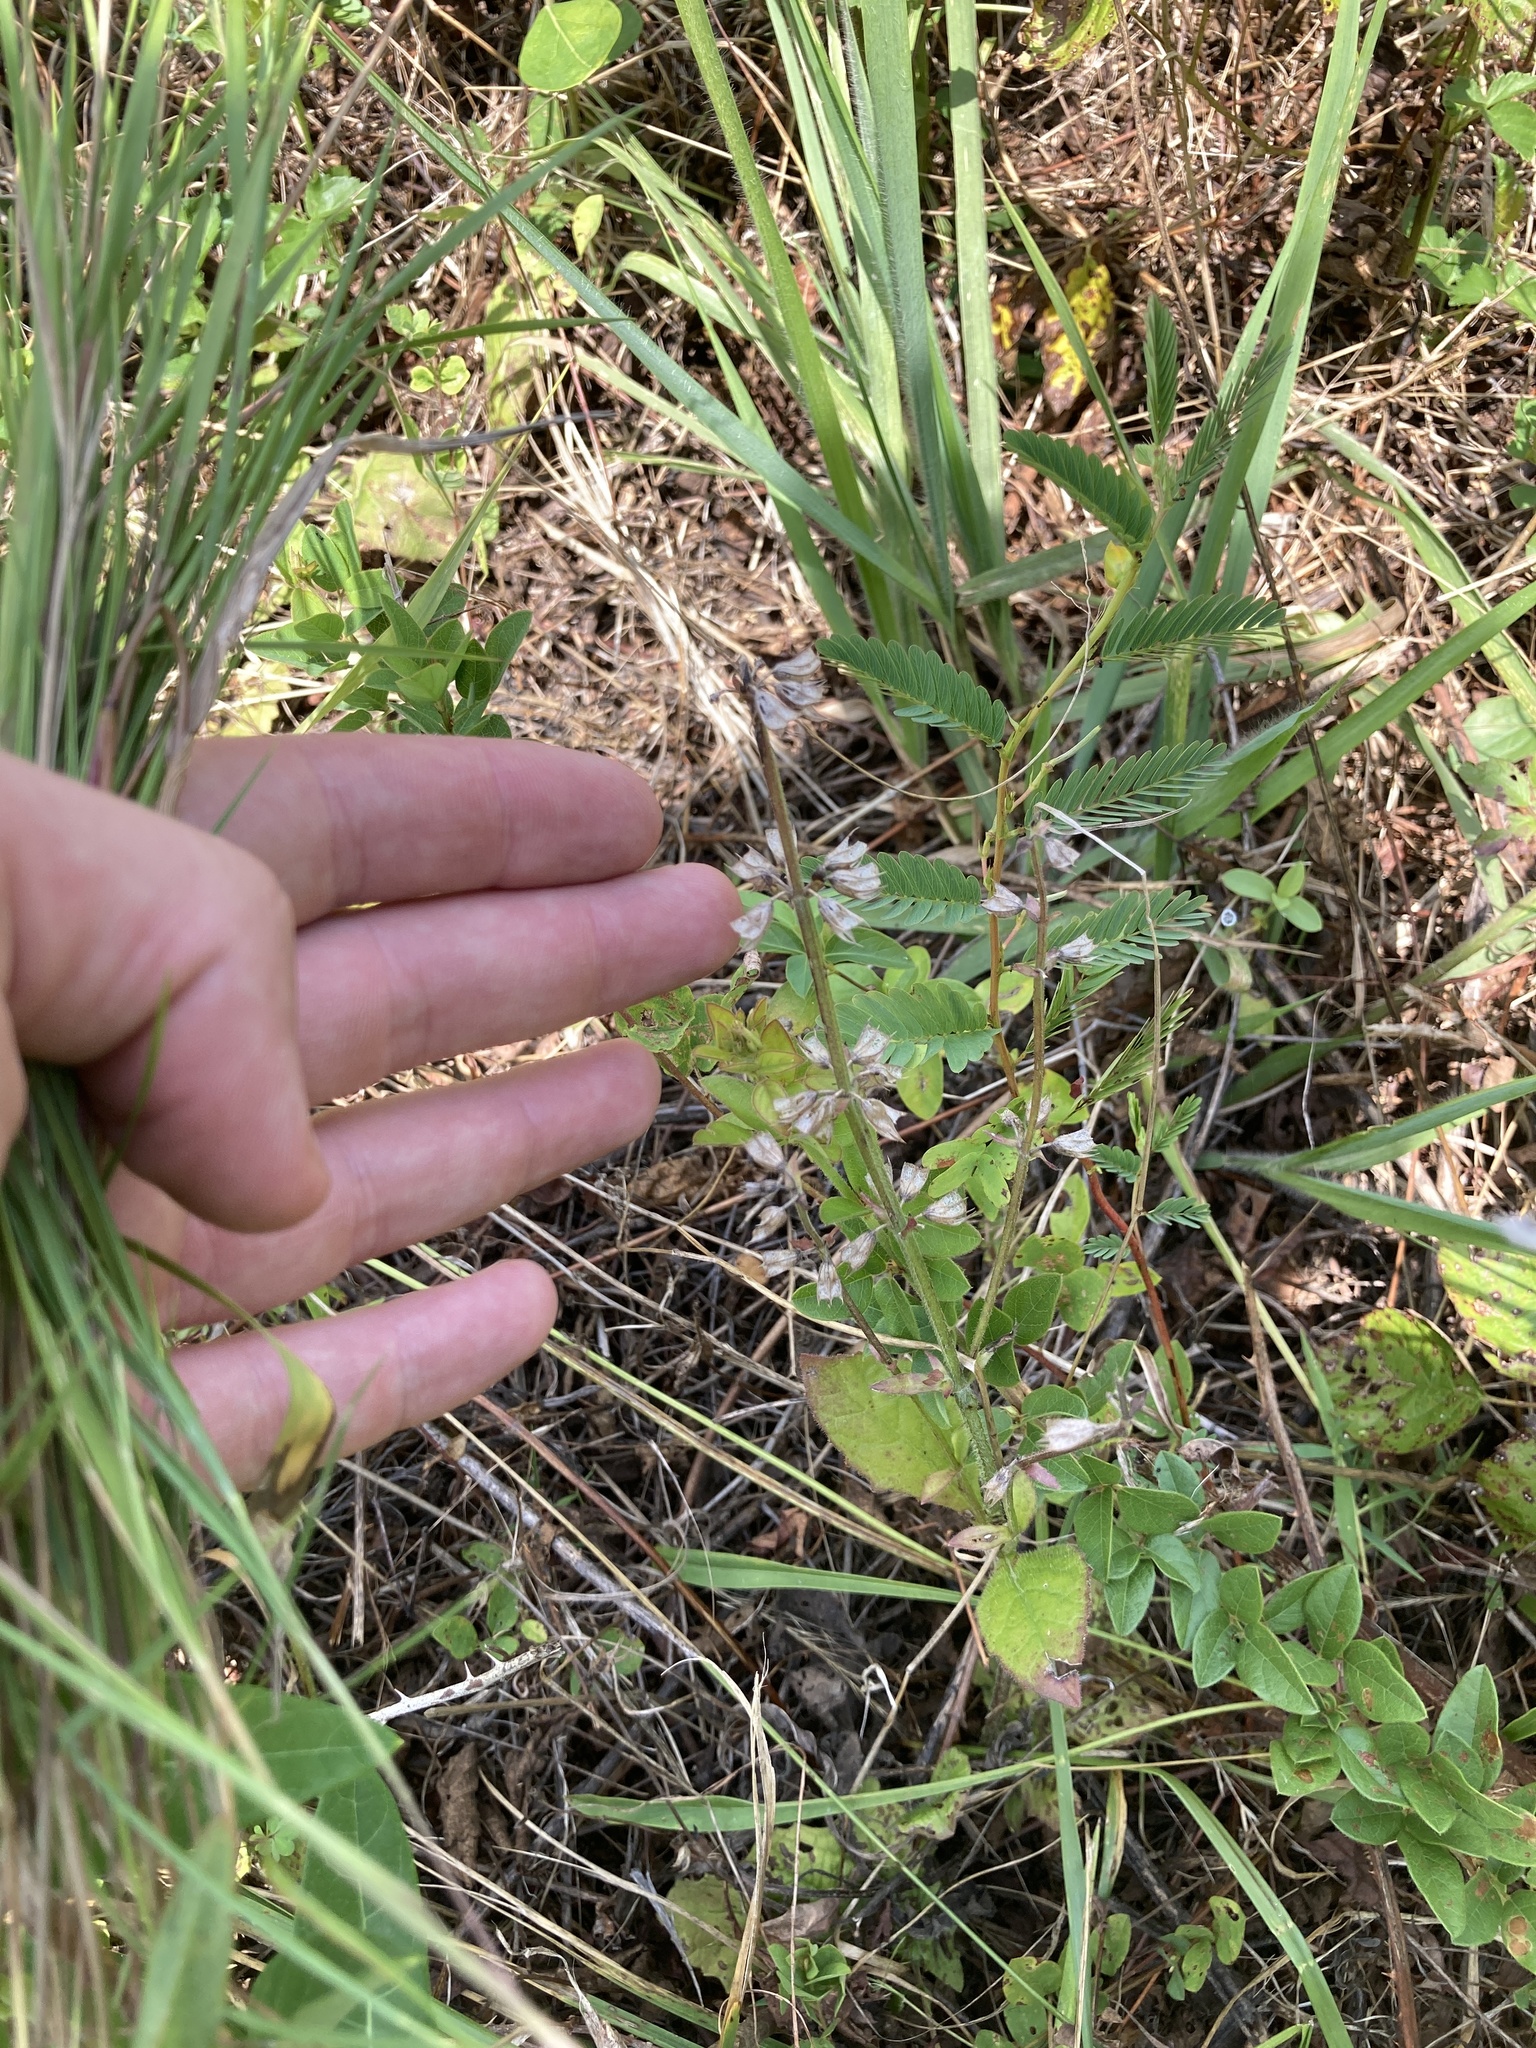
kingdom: Plantae
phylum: Tracheophyta
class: Magnoliopsida
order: Lamiales
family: Lamiaceae
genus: Salvia
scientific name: Salvia lyrata
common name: Cancerweed
